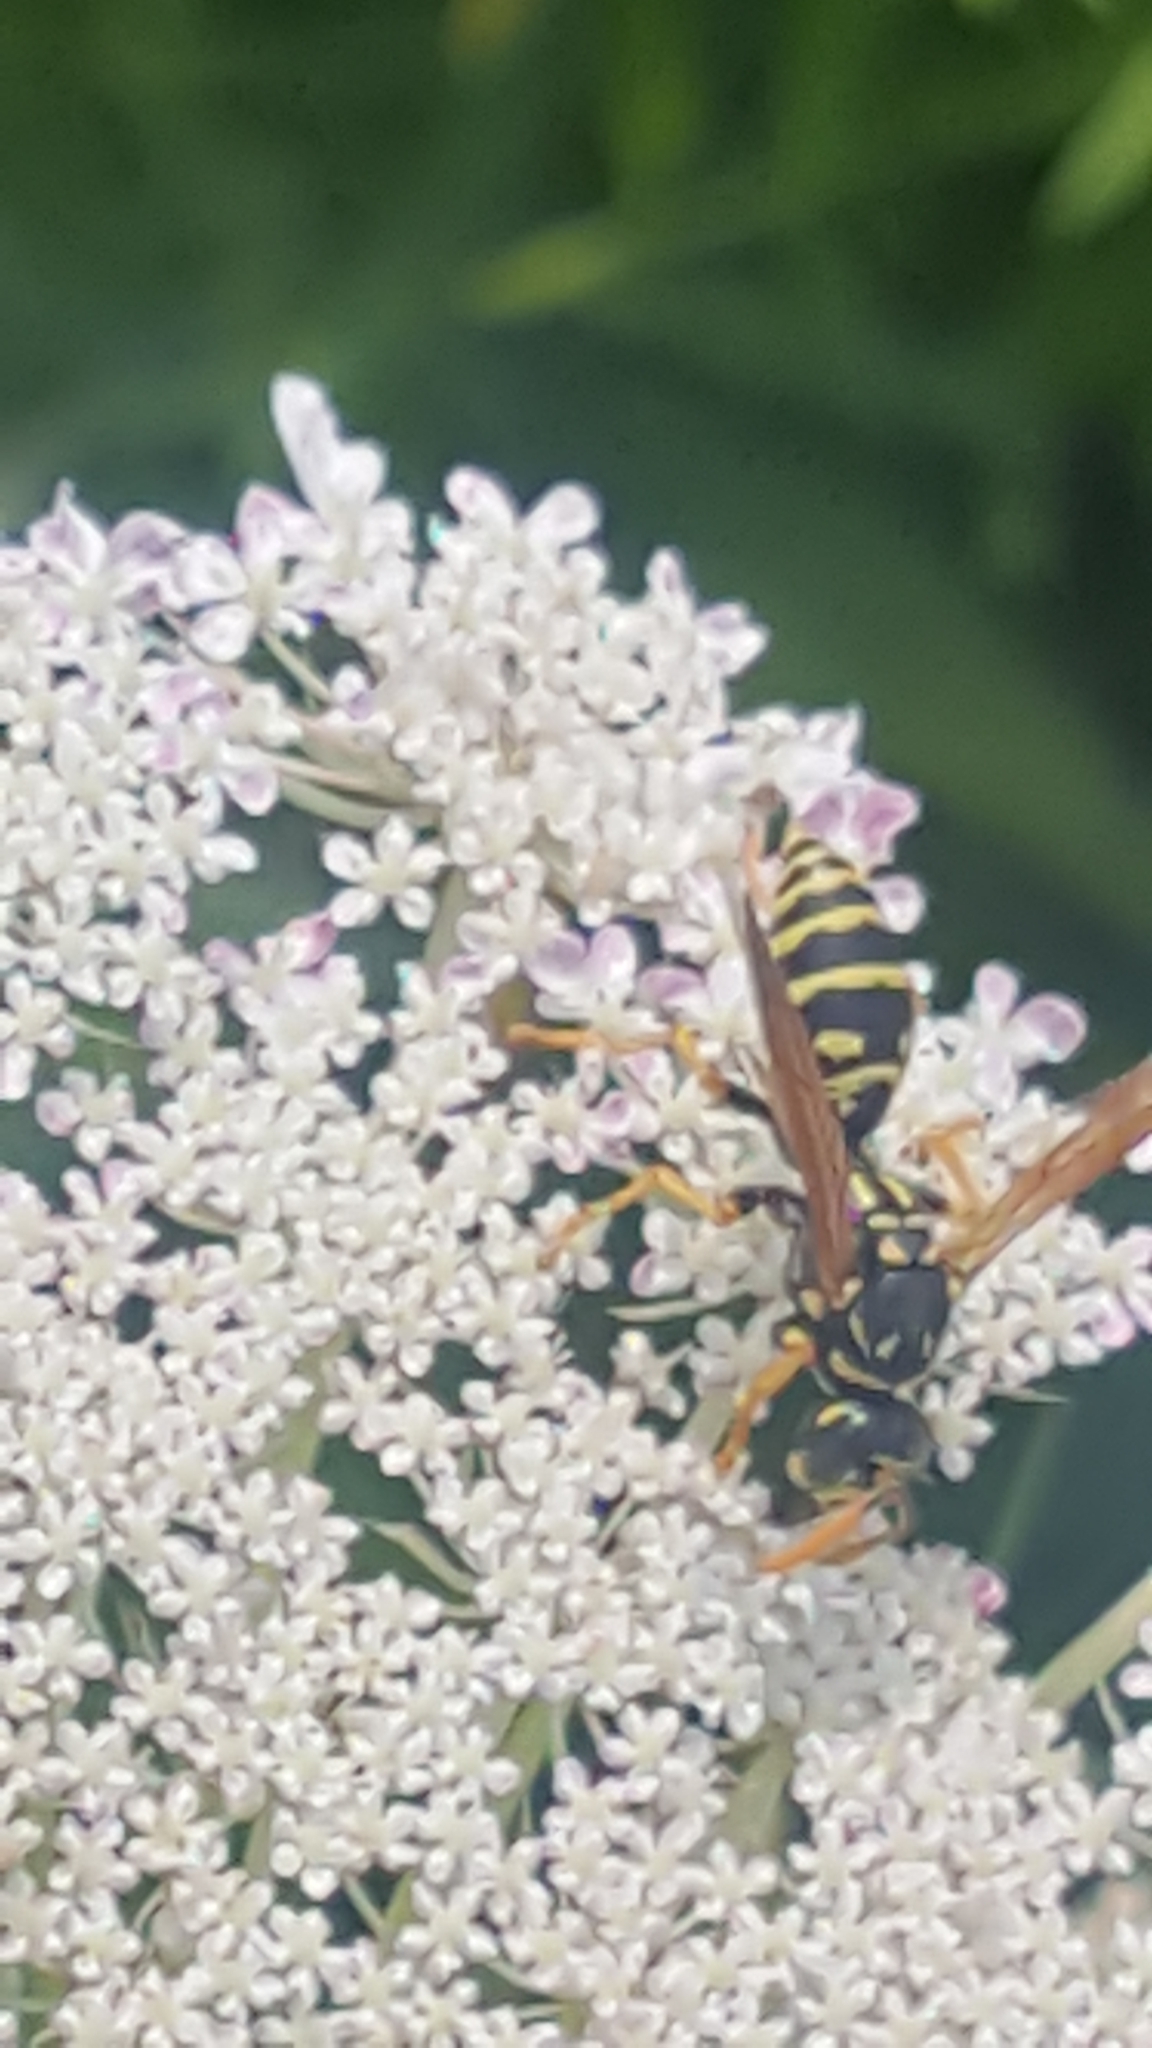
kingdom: Animalia
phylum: Arthropoda
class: Insecta
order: Hymenoptera
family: Eumenidae
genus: Polistes
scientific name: Polistes dominula
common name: Paper wasp
